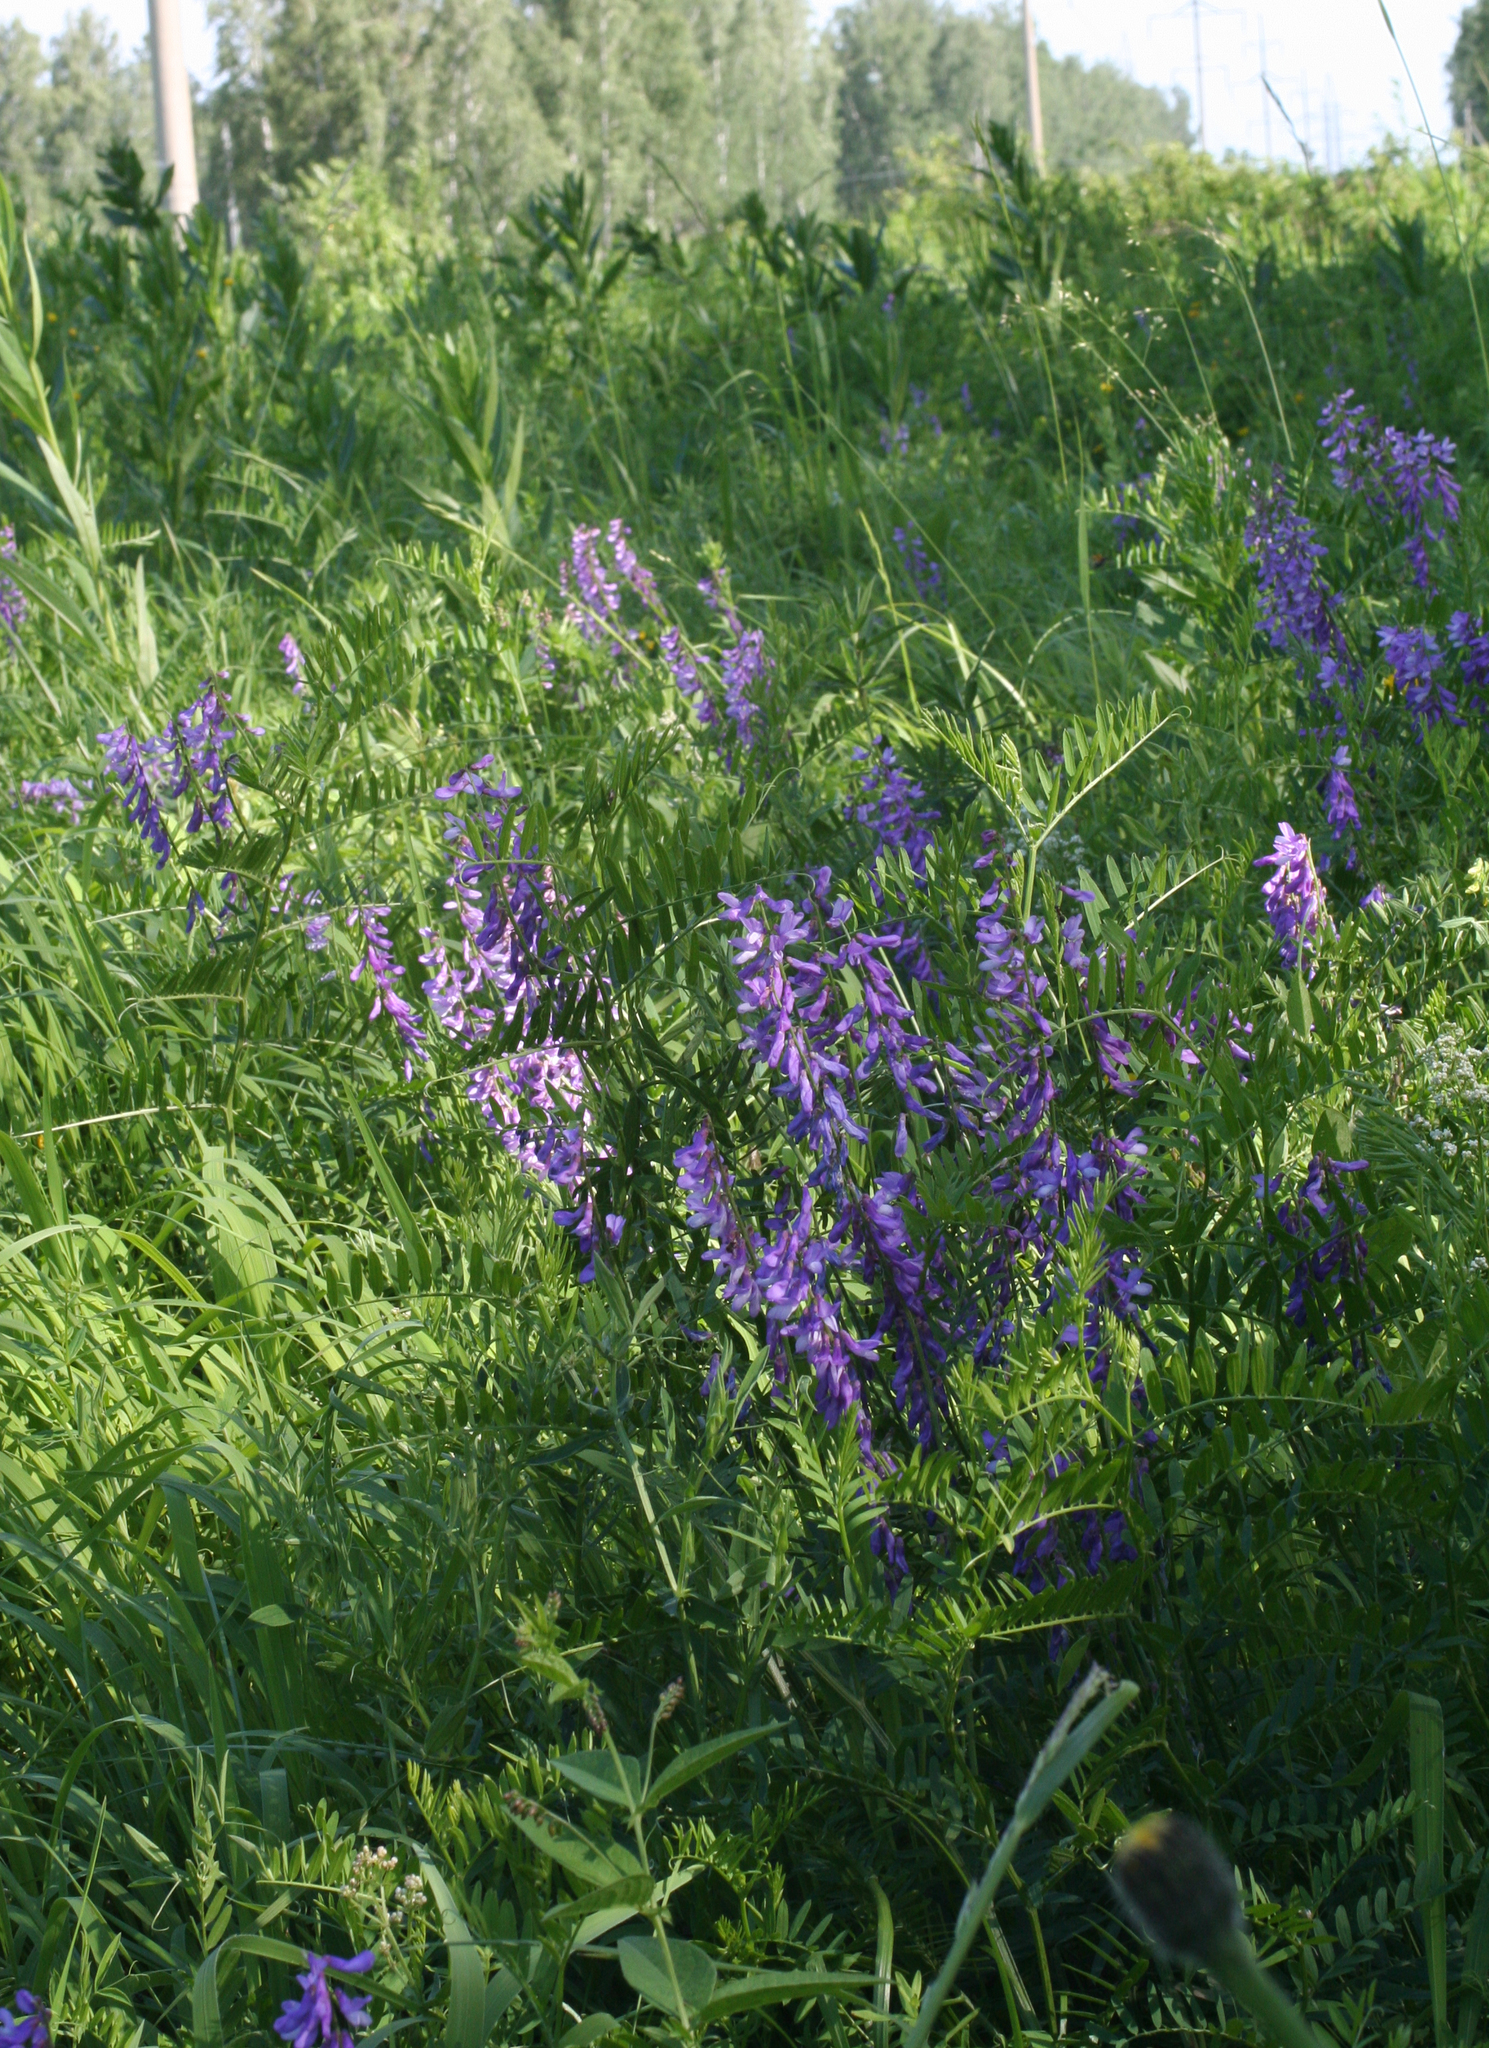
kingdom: Plantae
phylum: Tracheophyta
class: Magnoliopsida
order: Fabales
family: Fabaceae
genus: Vicia
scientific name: Vicia tenuifolia
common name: Fine-leaved vetch
